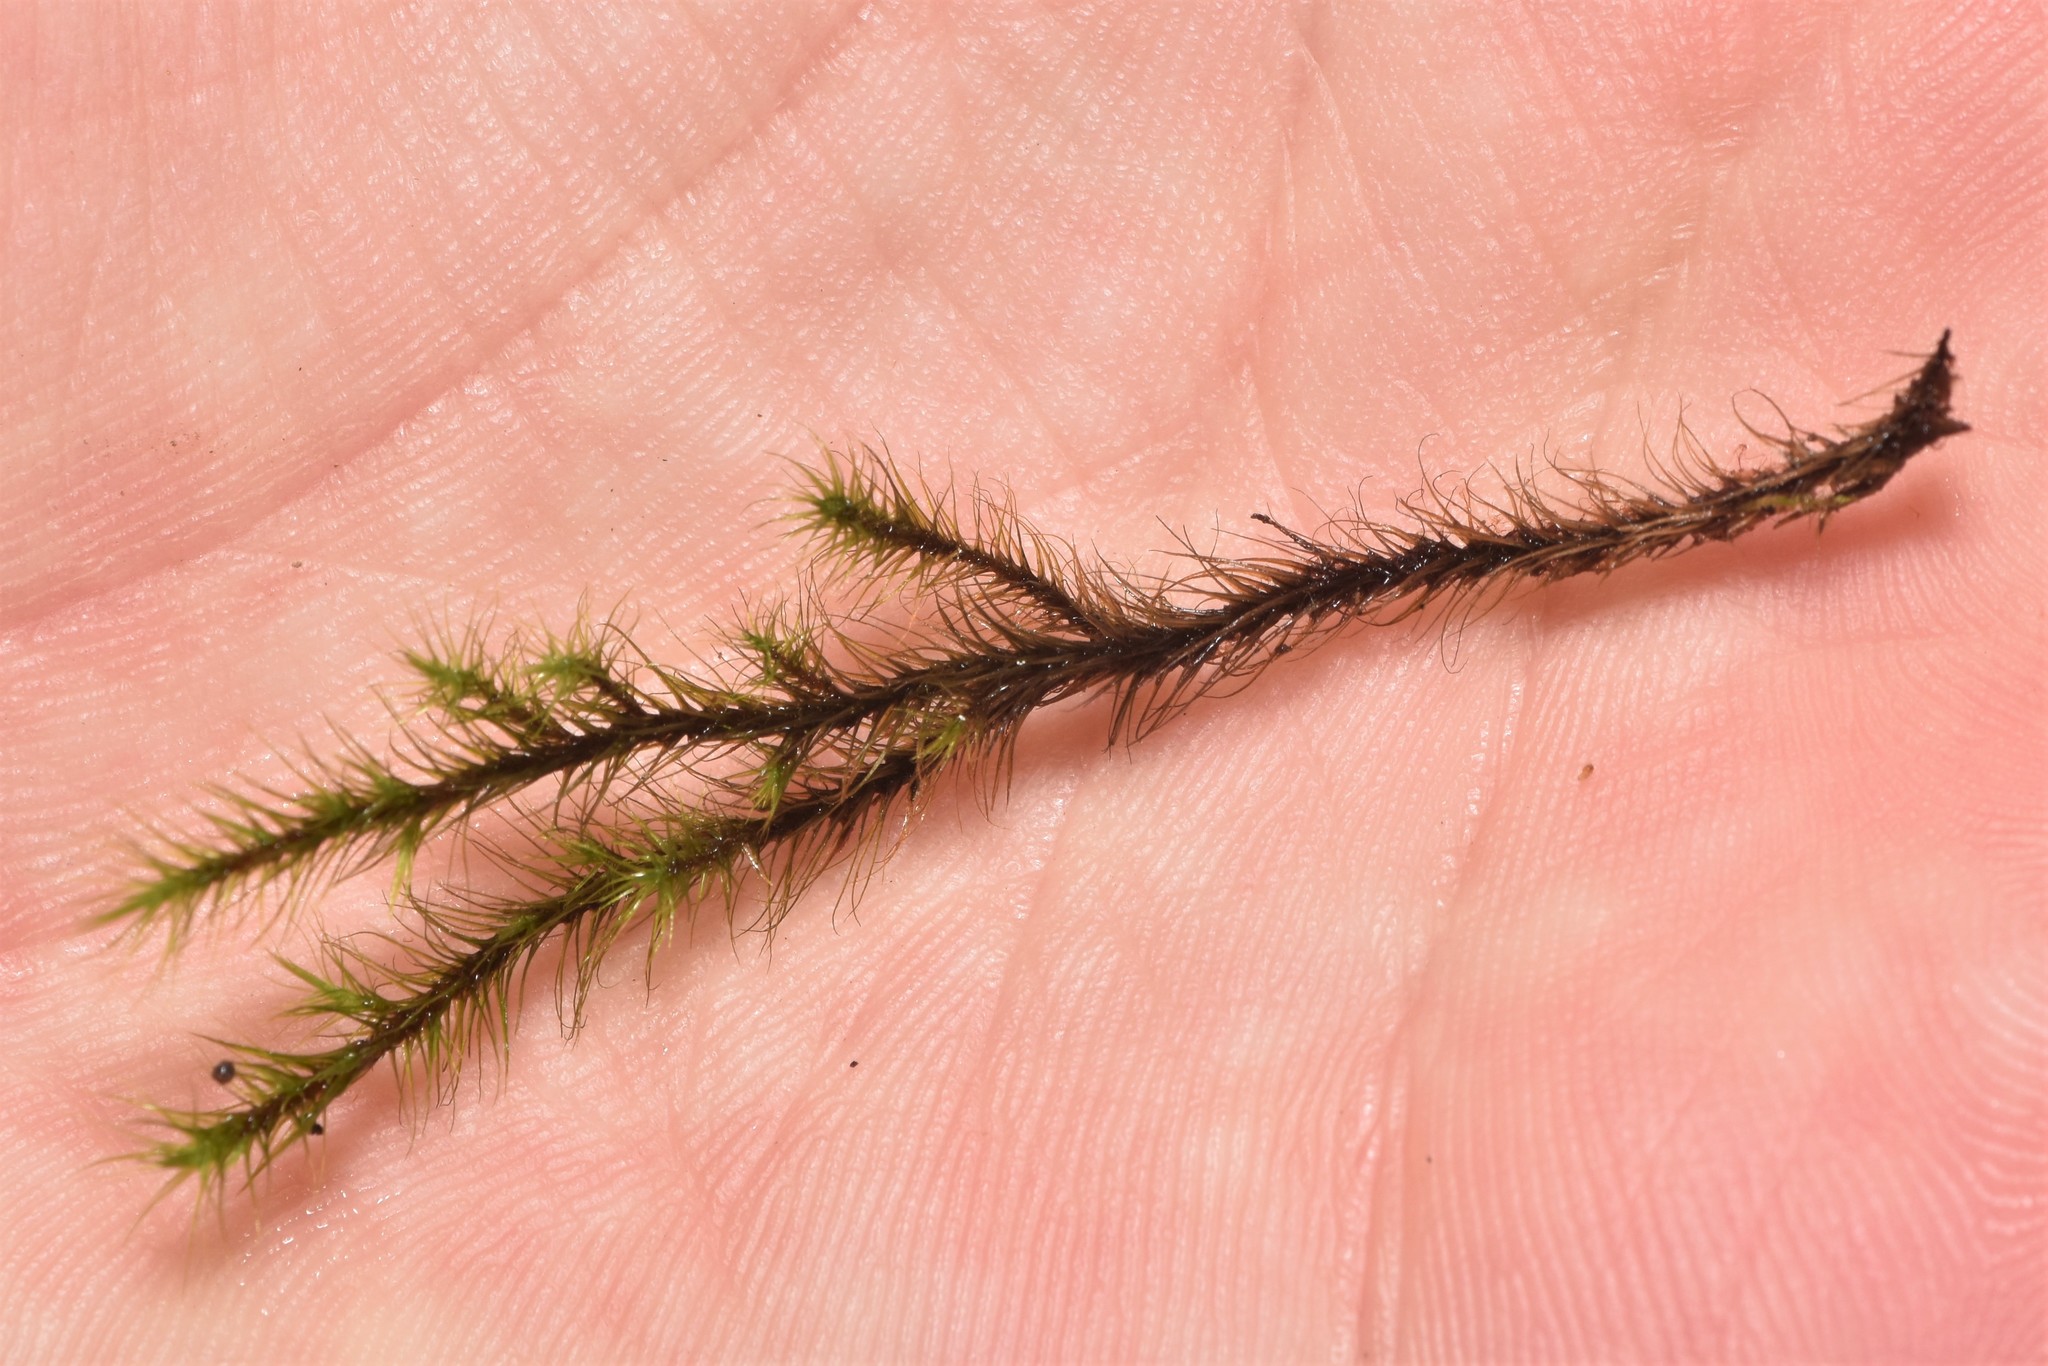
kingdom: Plantae
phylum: Bryophyta
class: Bryopsida
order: Bartramiales
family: Bartramiaceae
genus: Anacolia
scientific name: Anacolia menziesii
